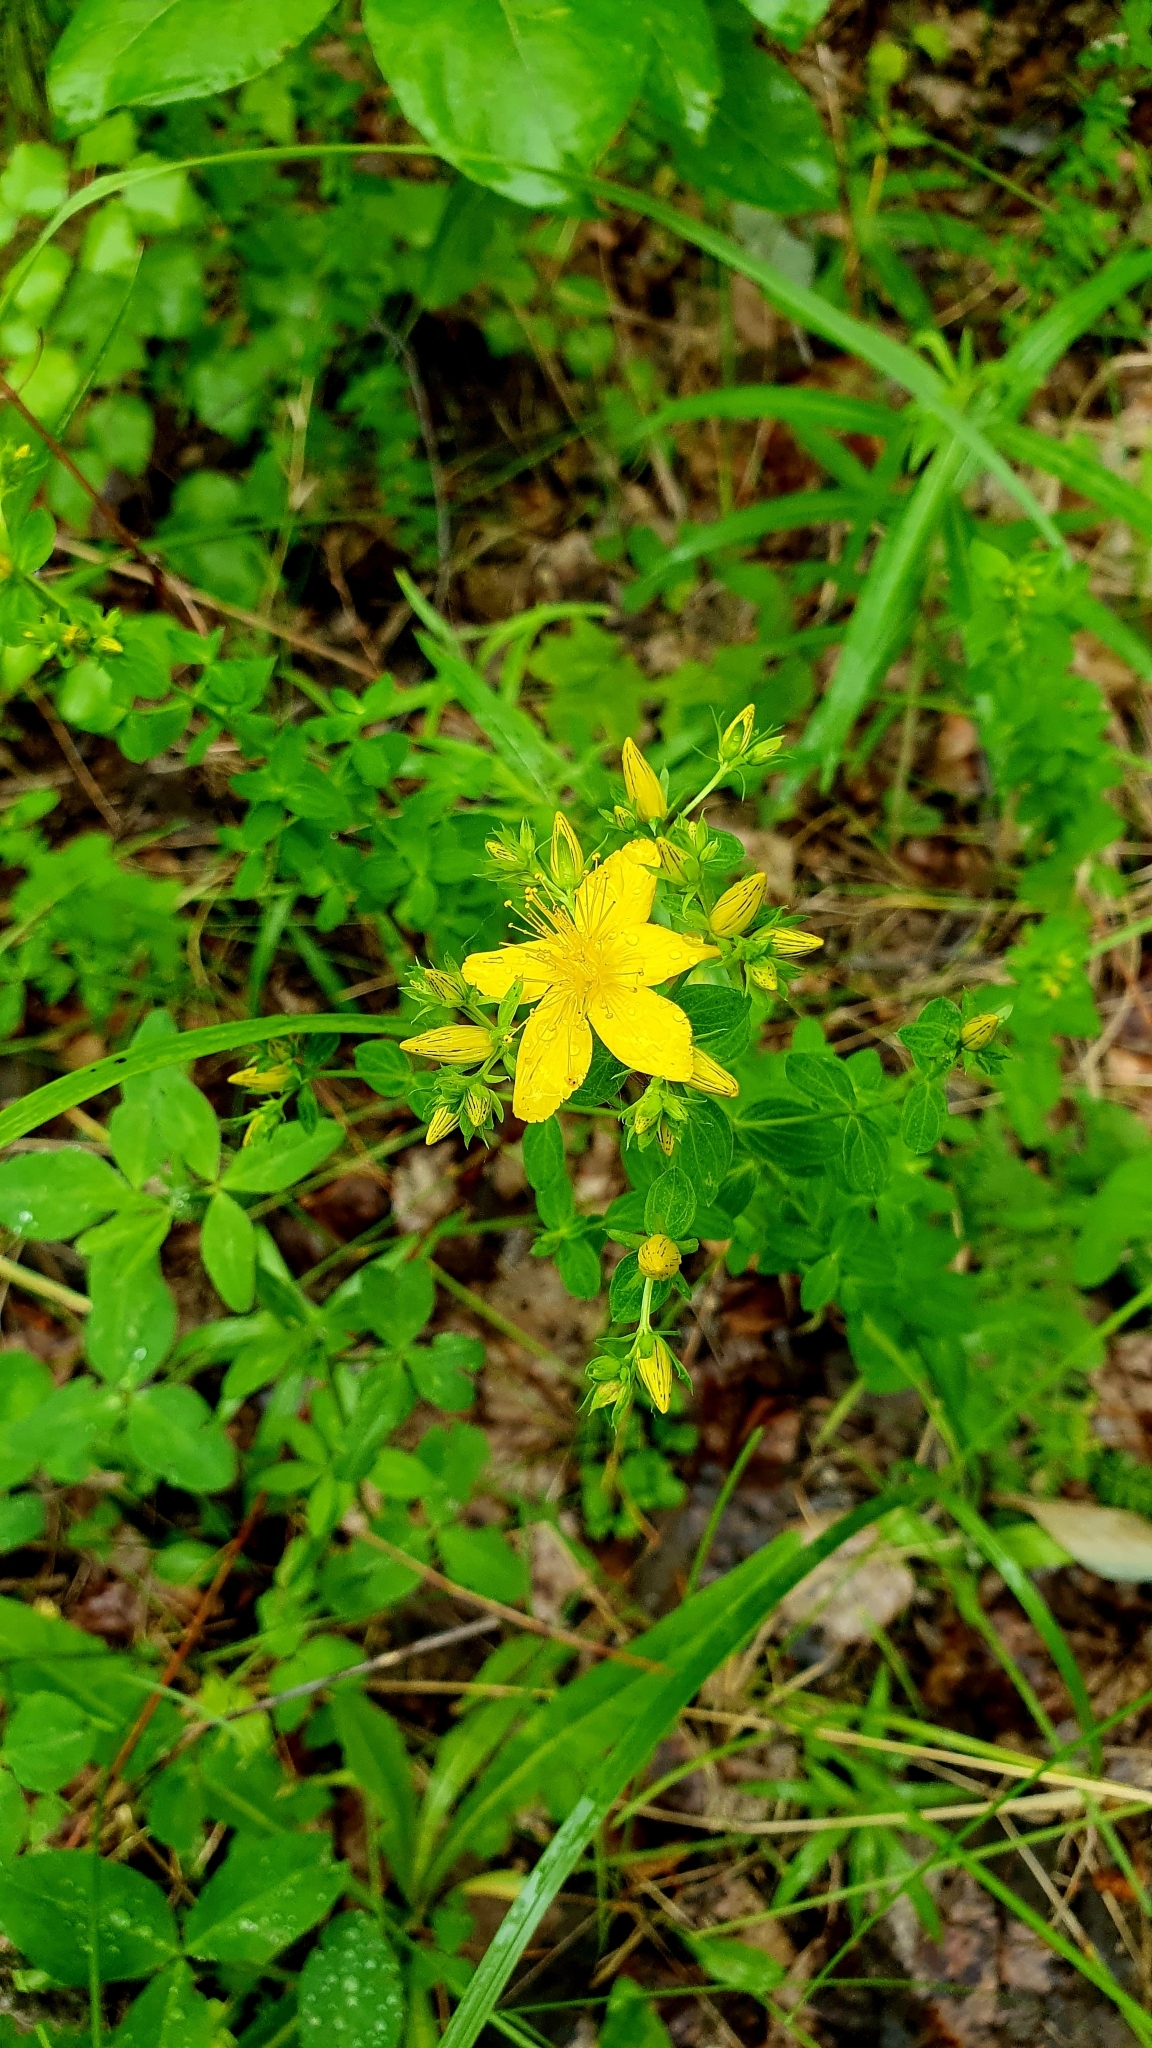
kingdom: Plantae
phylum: Tracheophyta
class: Magnoliopsida
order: Malpighiales
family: Hypericaceae
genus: Hypericum
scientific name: Hypericum perforatum
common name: Common st. johnswort
